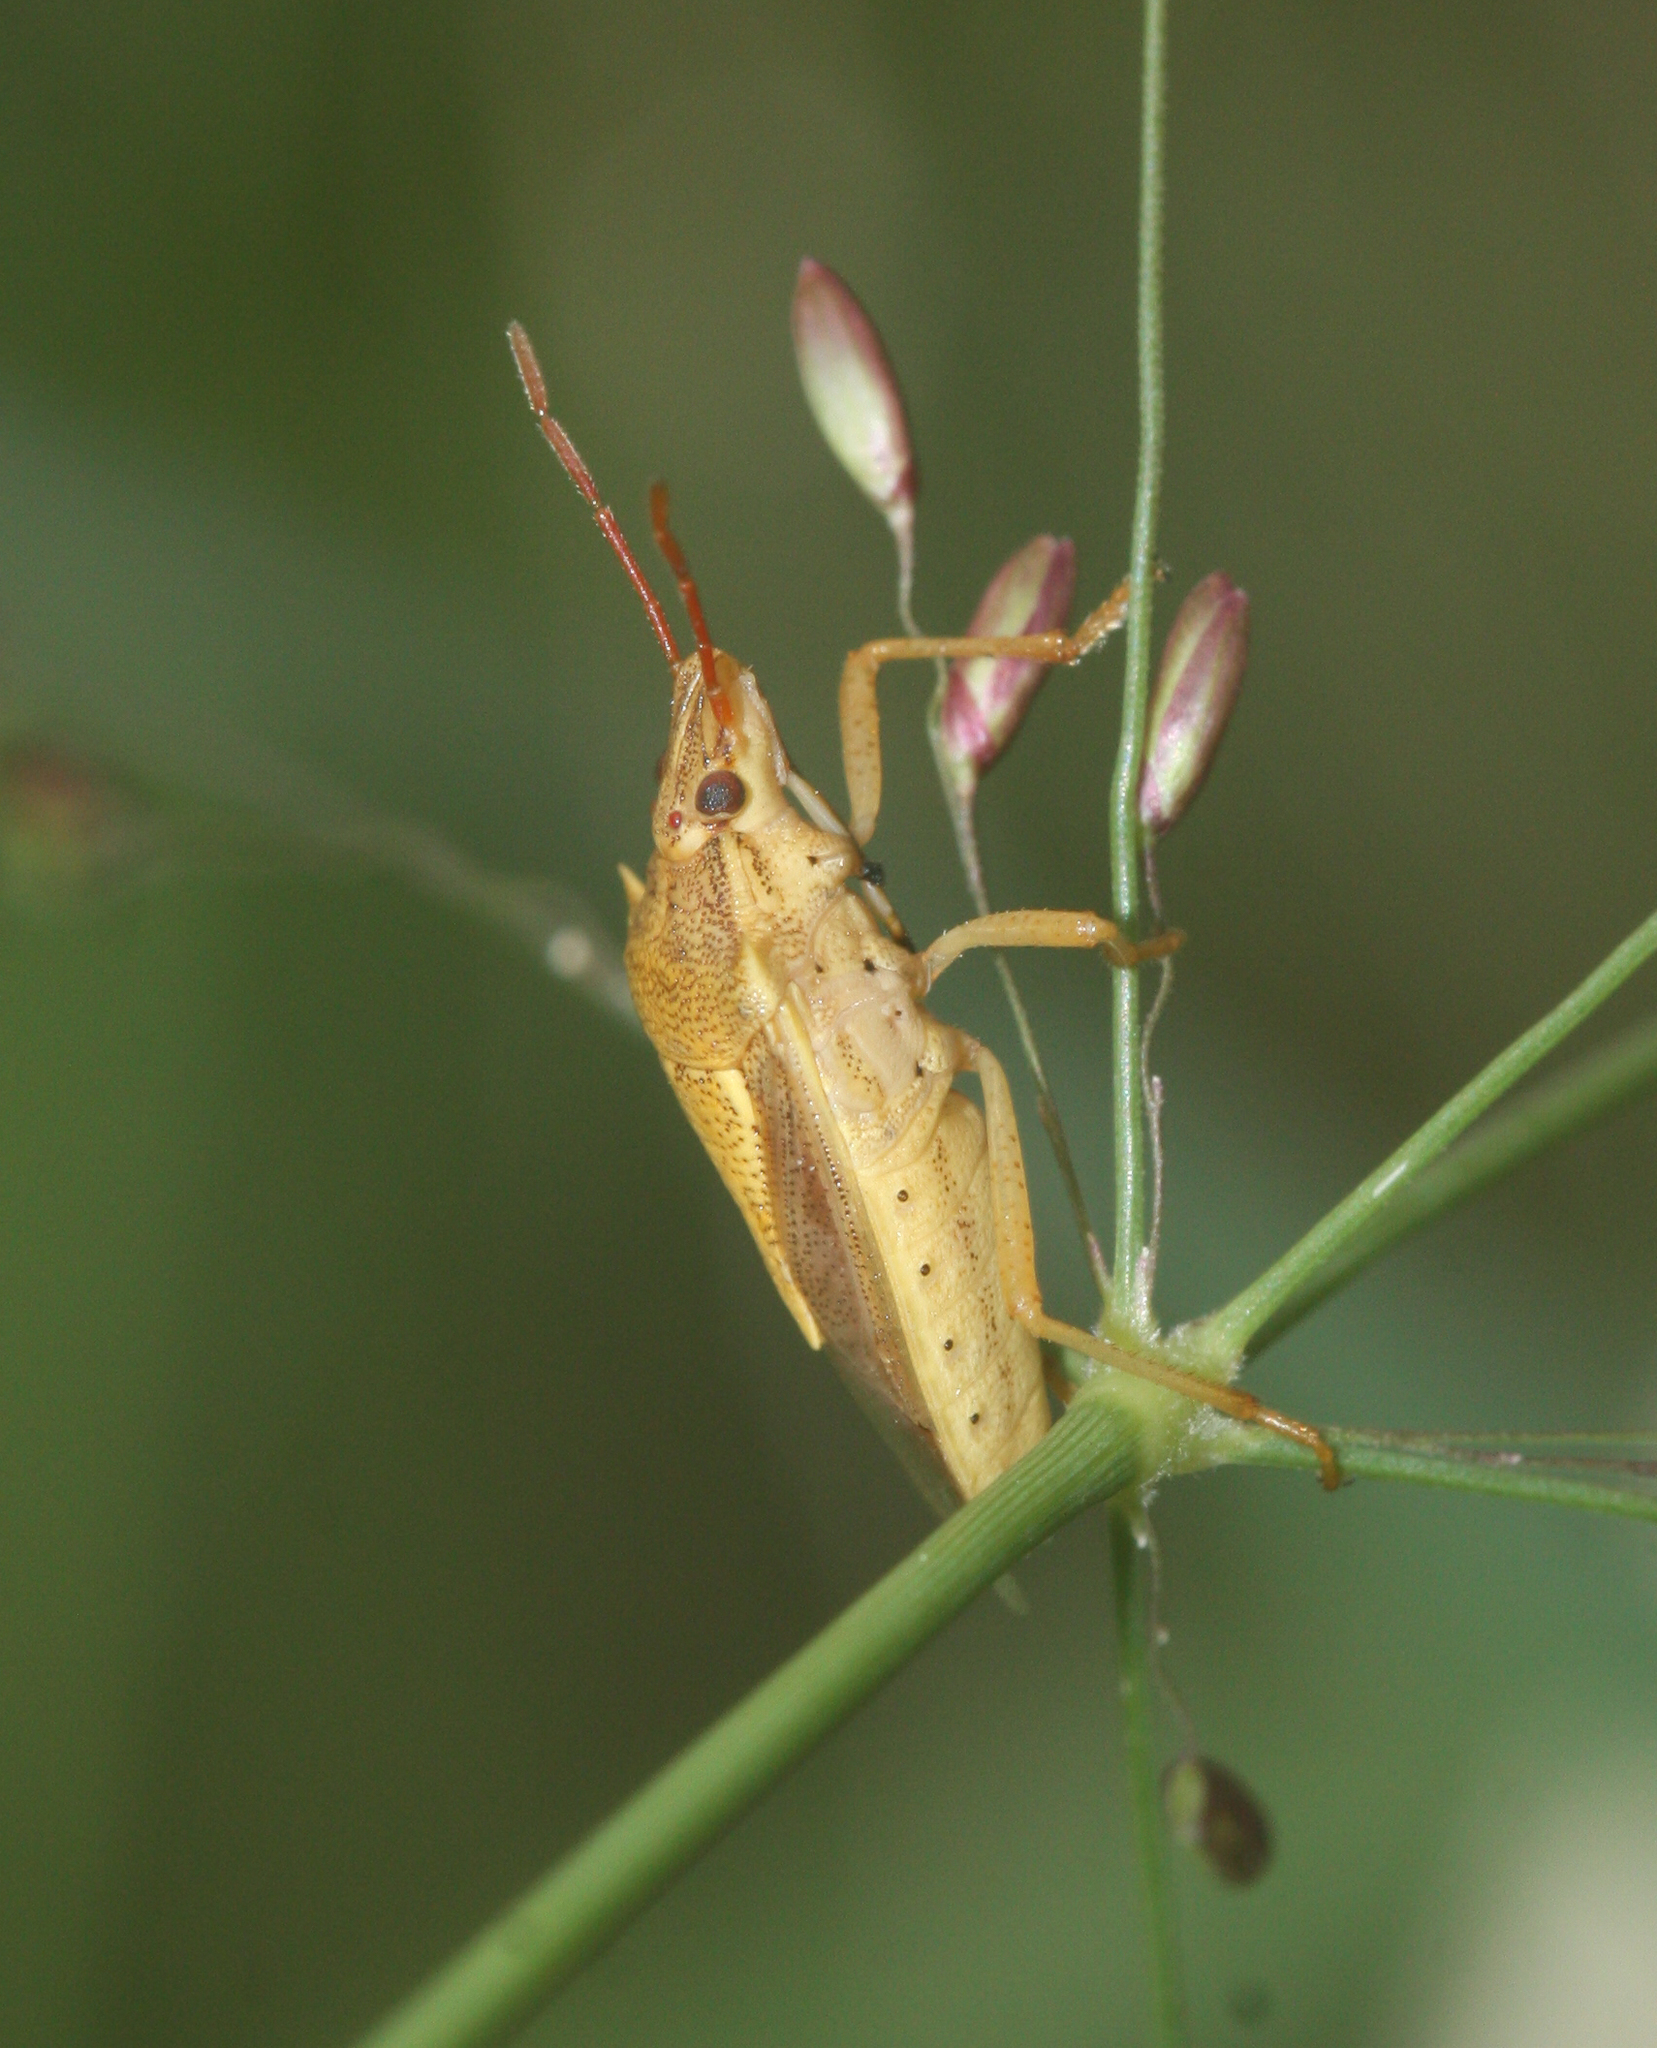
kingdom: Animalia
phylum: Arthropoda
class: Insecta
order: Hemiptera
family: Pentatomidae
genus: Oebalus
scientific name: Oebalus pugnax
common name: Rice stink bug
